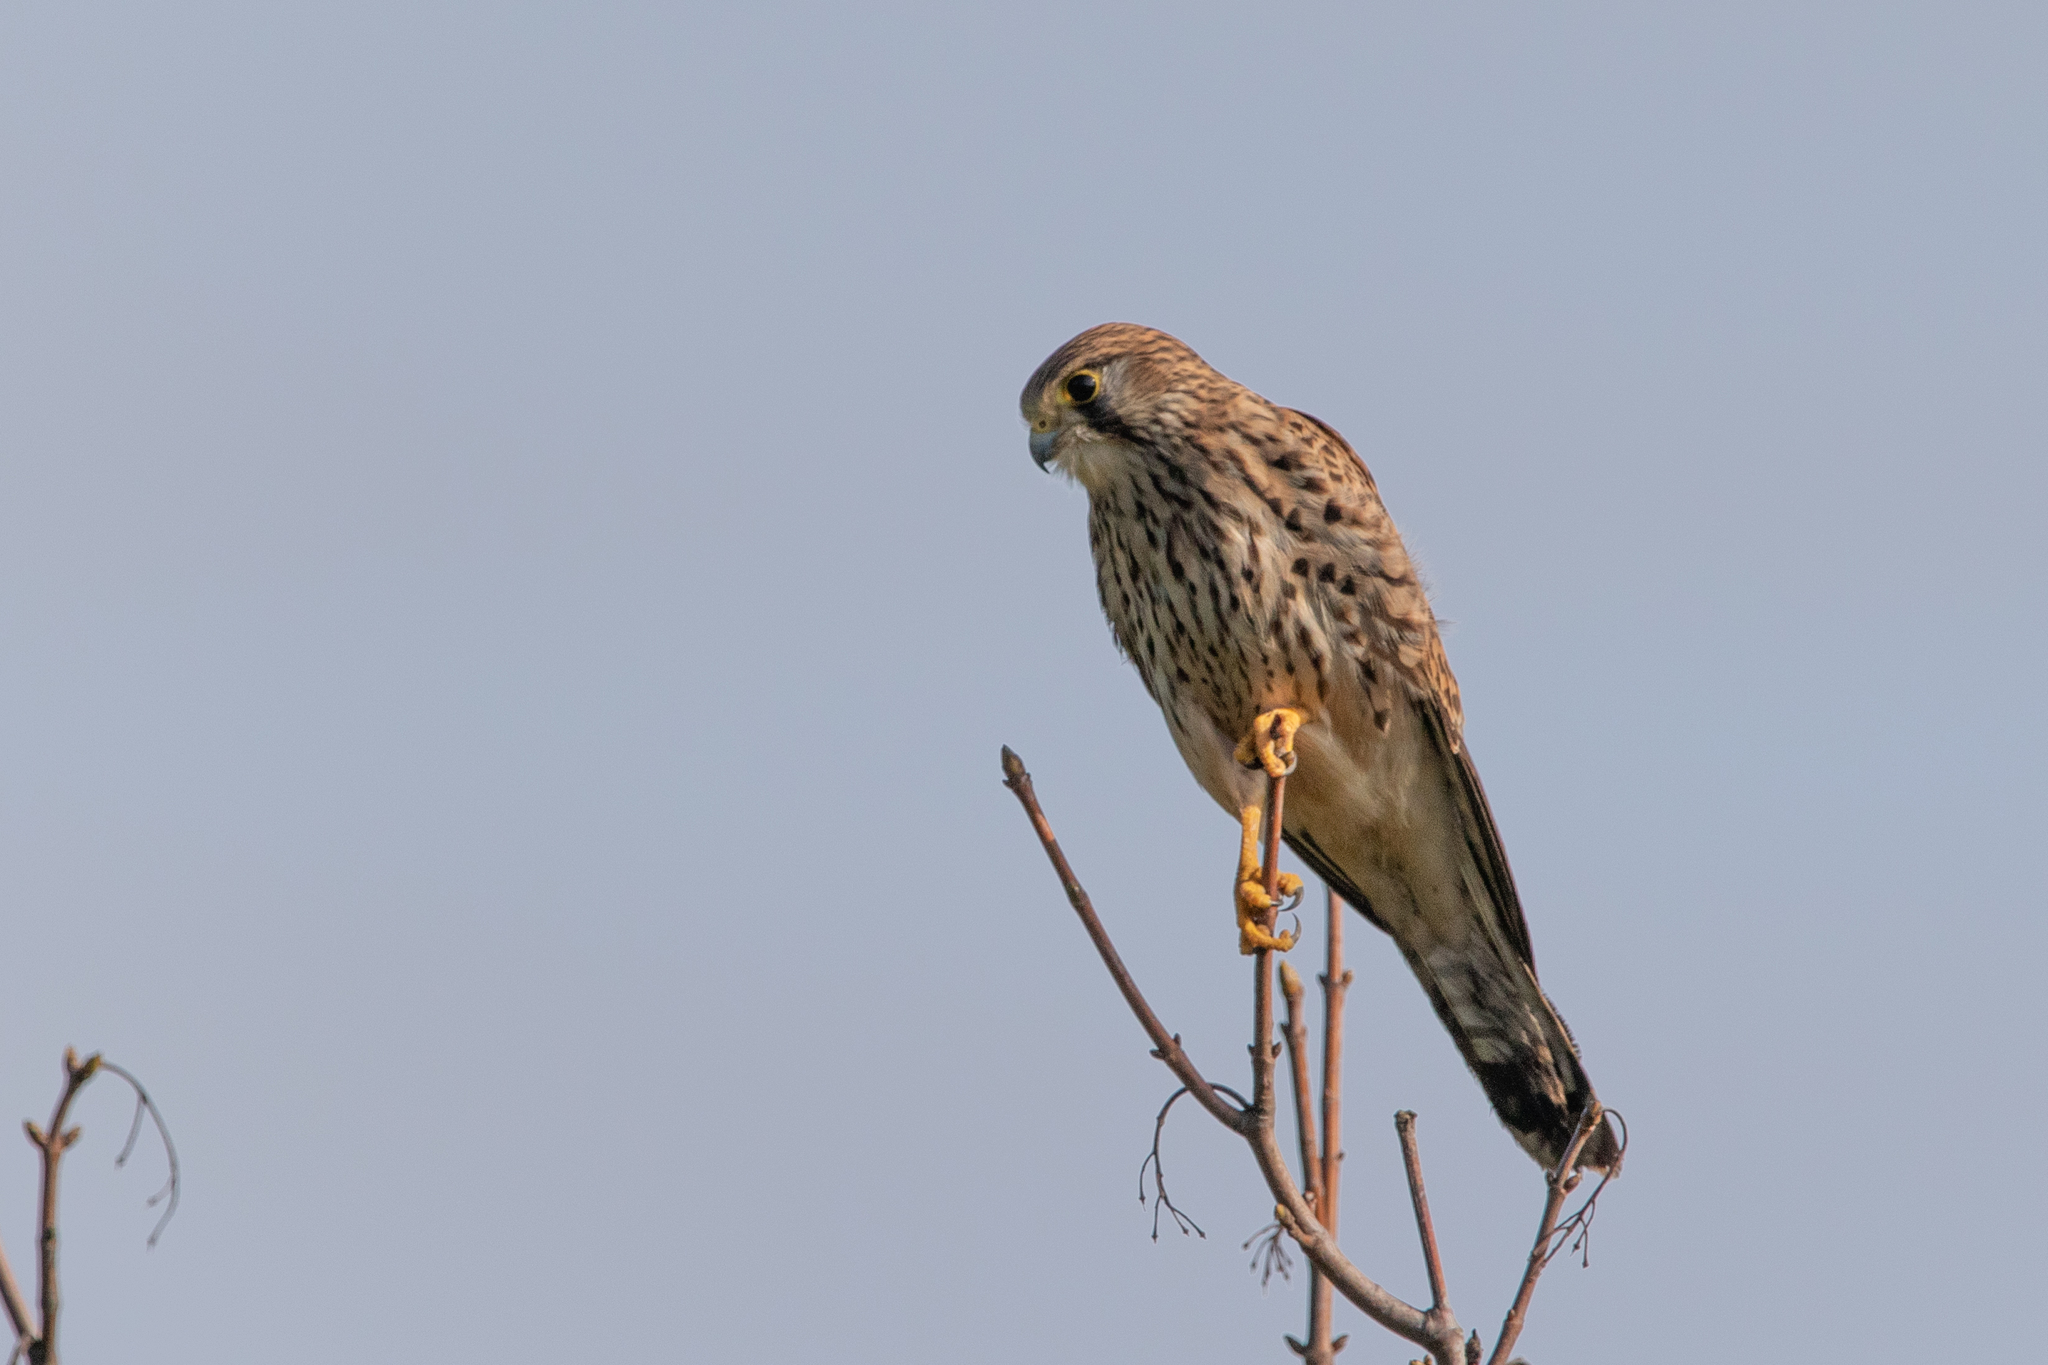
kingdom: Animalia
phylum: Chordata
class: Aves
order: Falconiformes
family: Falconidae
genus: Falco
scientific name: Falco tinnunculus
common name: Common kestrel
